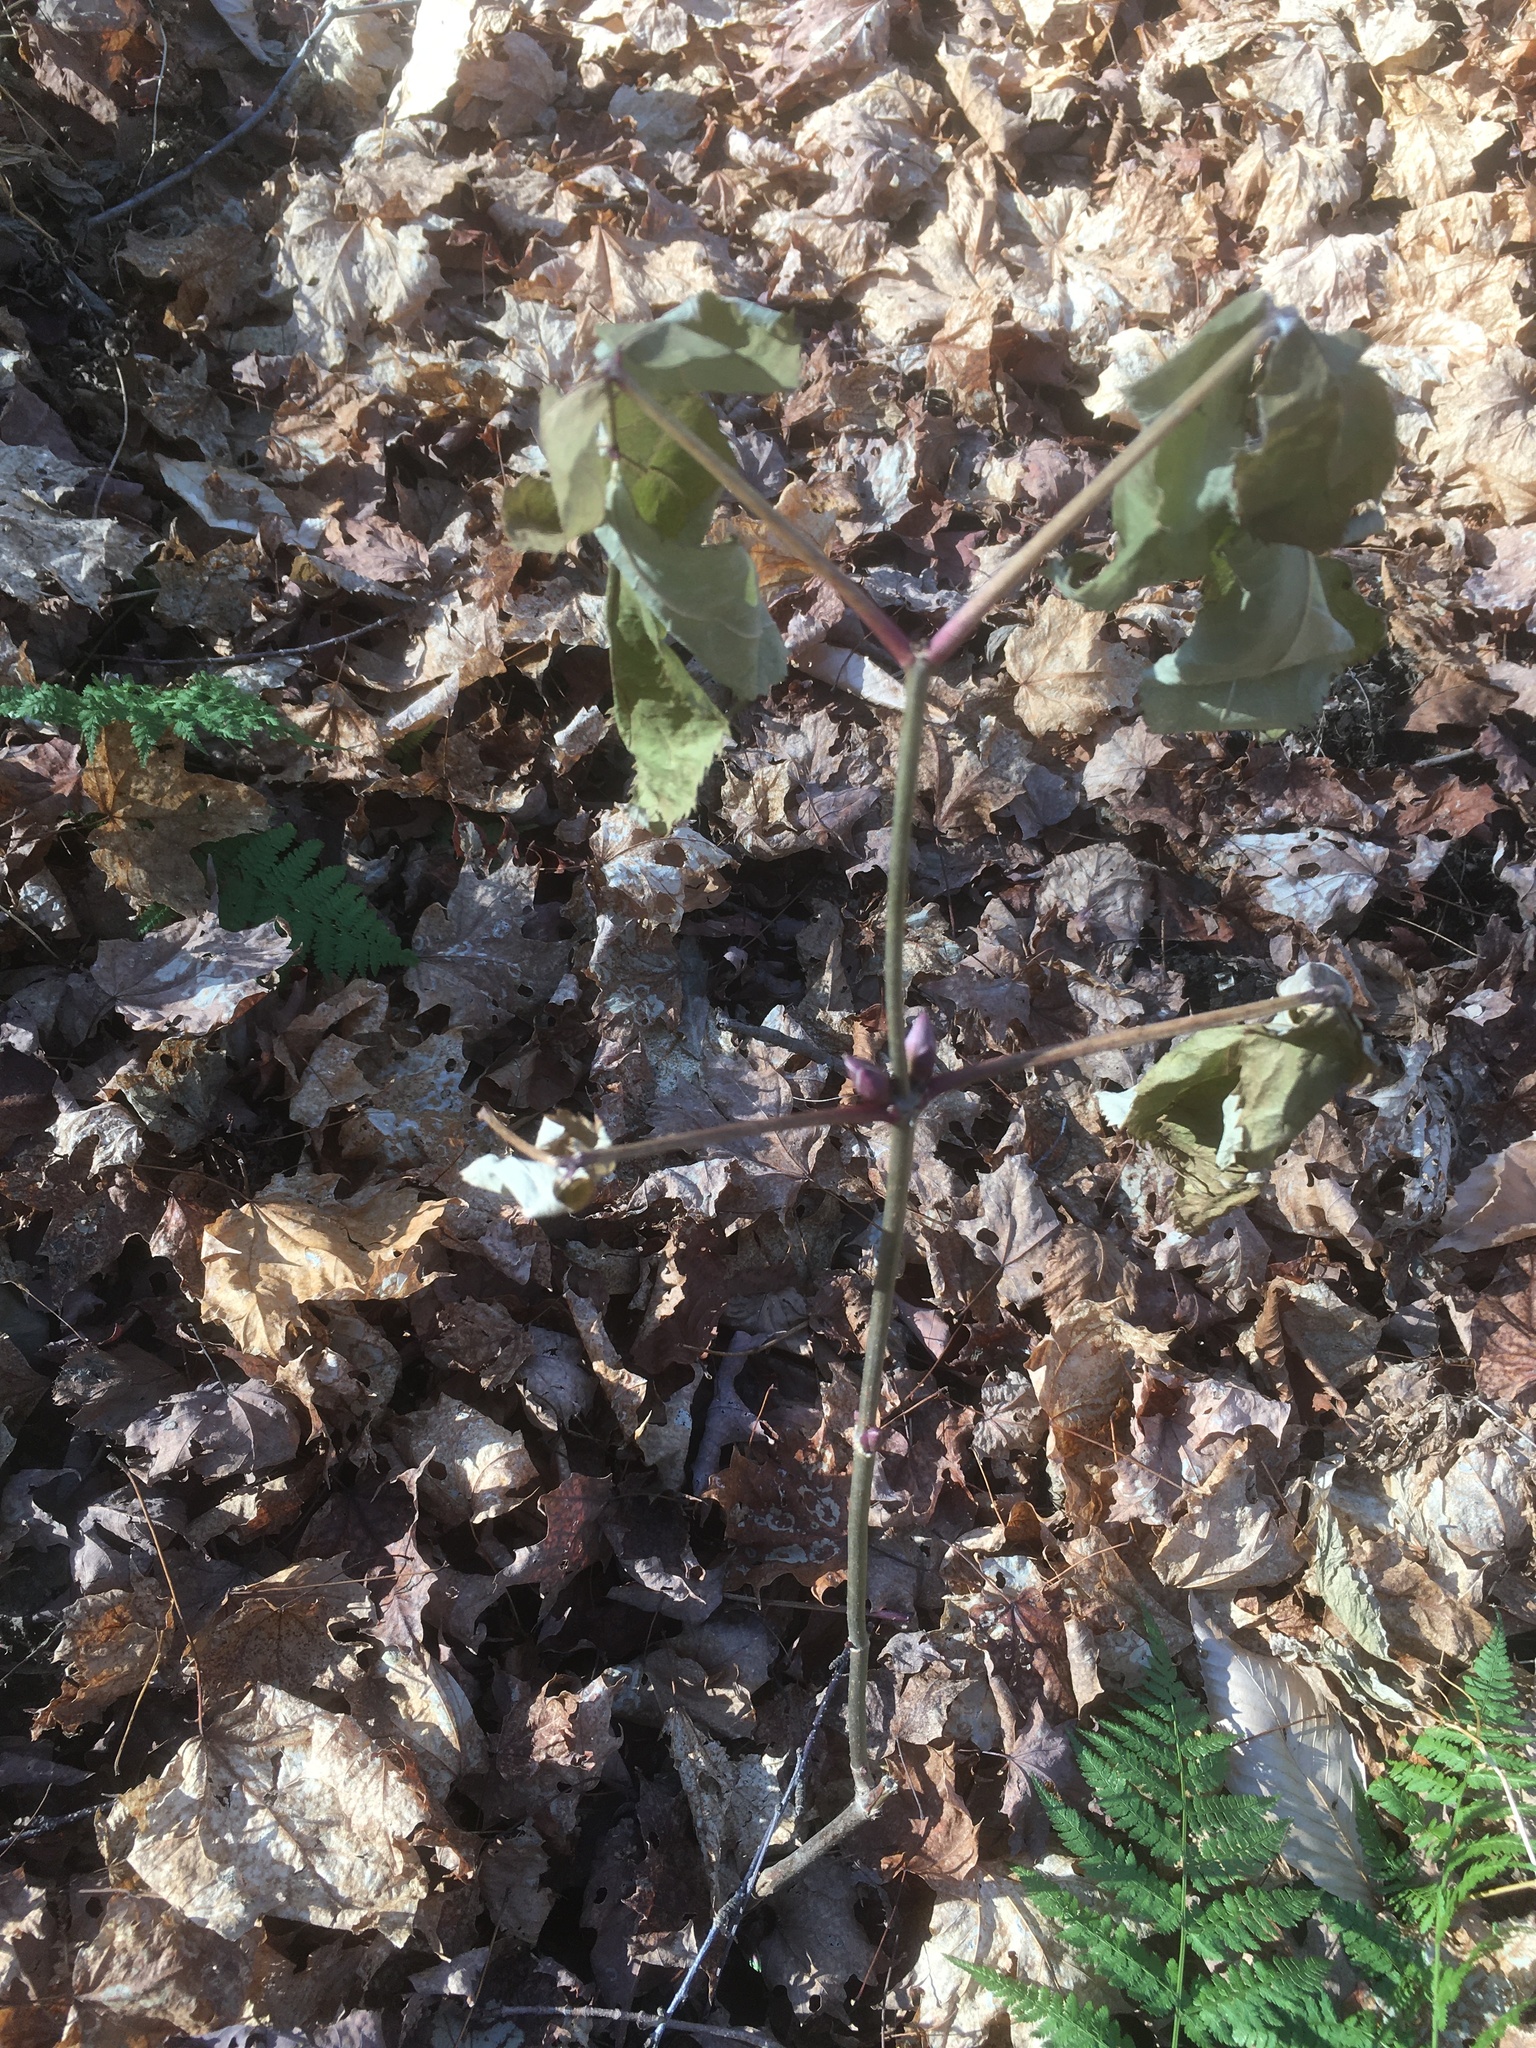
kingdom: Plantae
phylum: Tracheophyta
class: Magnoliopsida
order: Dipsacales
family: Viburnaceae
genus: Sambucus
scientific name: Sambucus racemosa
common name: Red-berried elder
